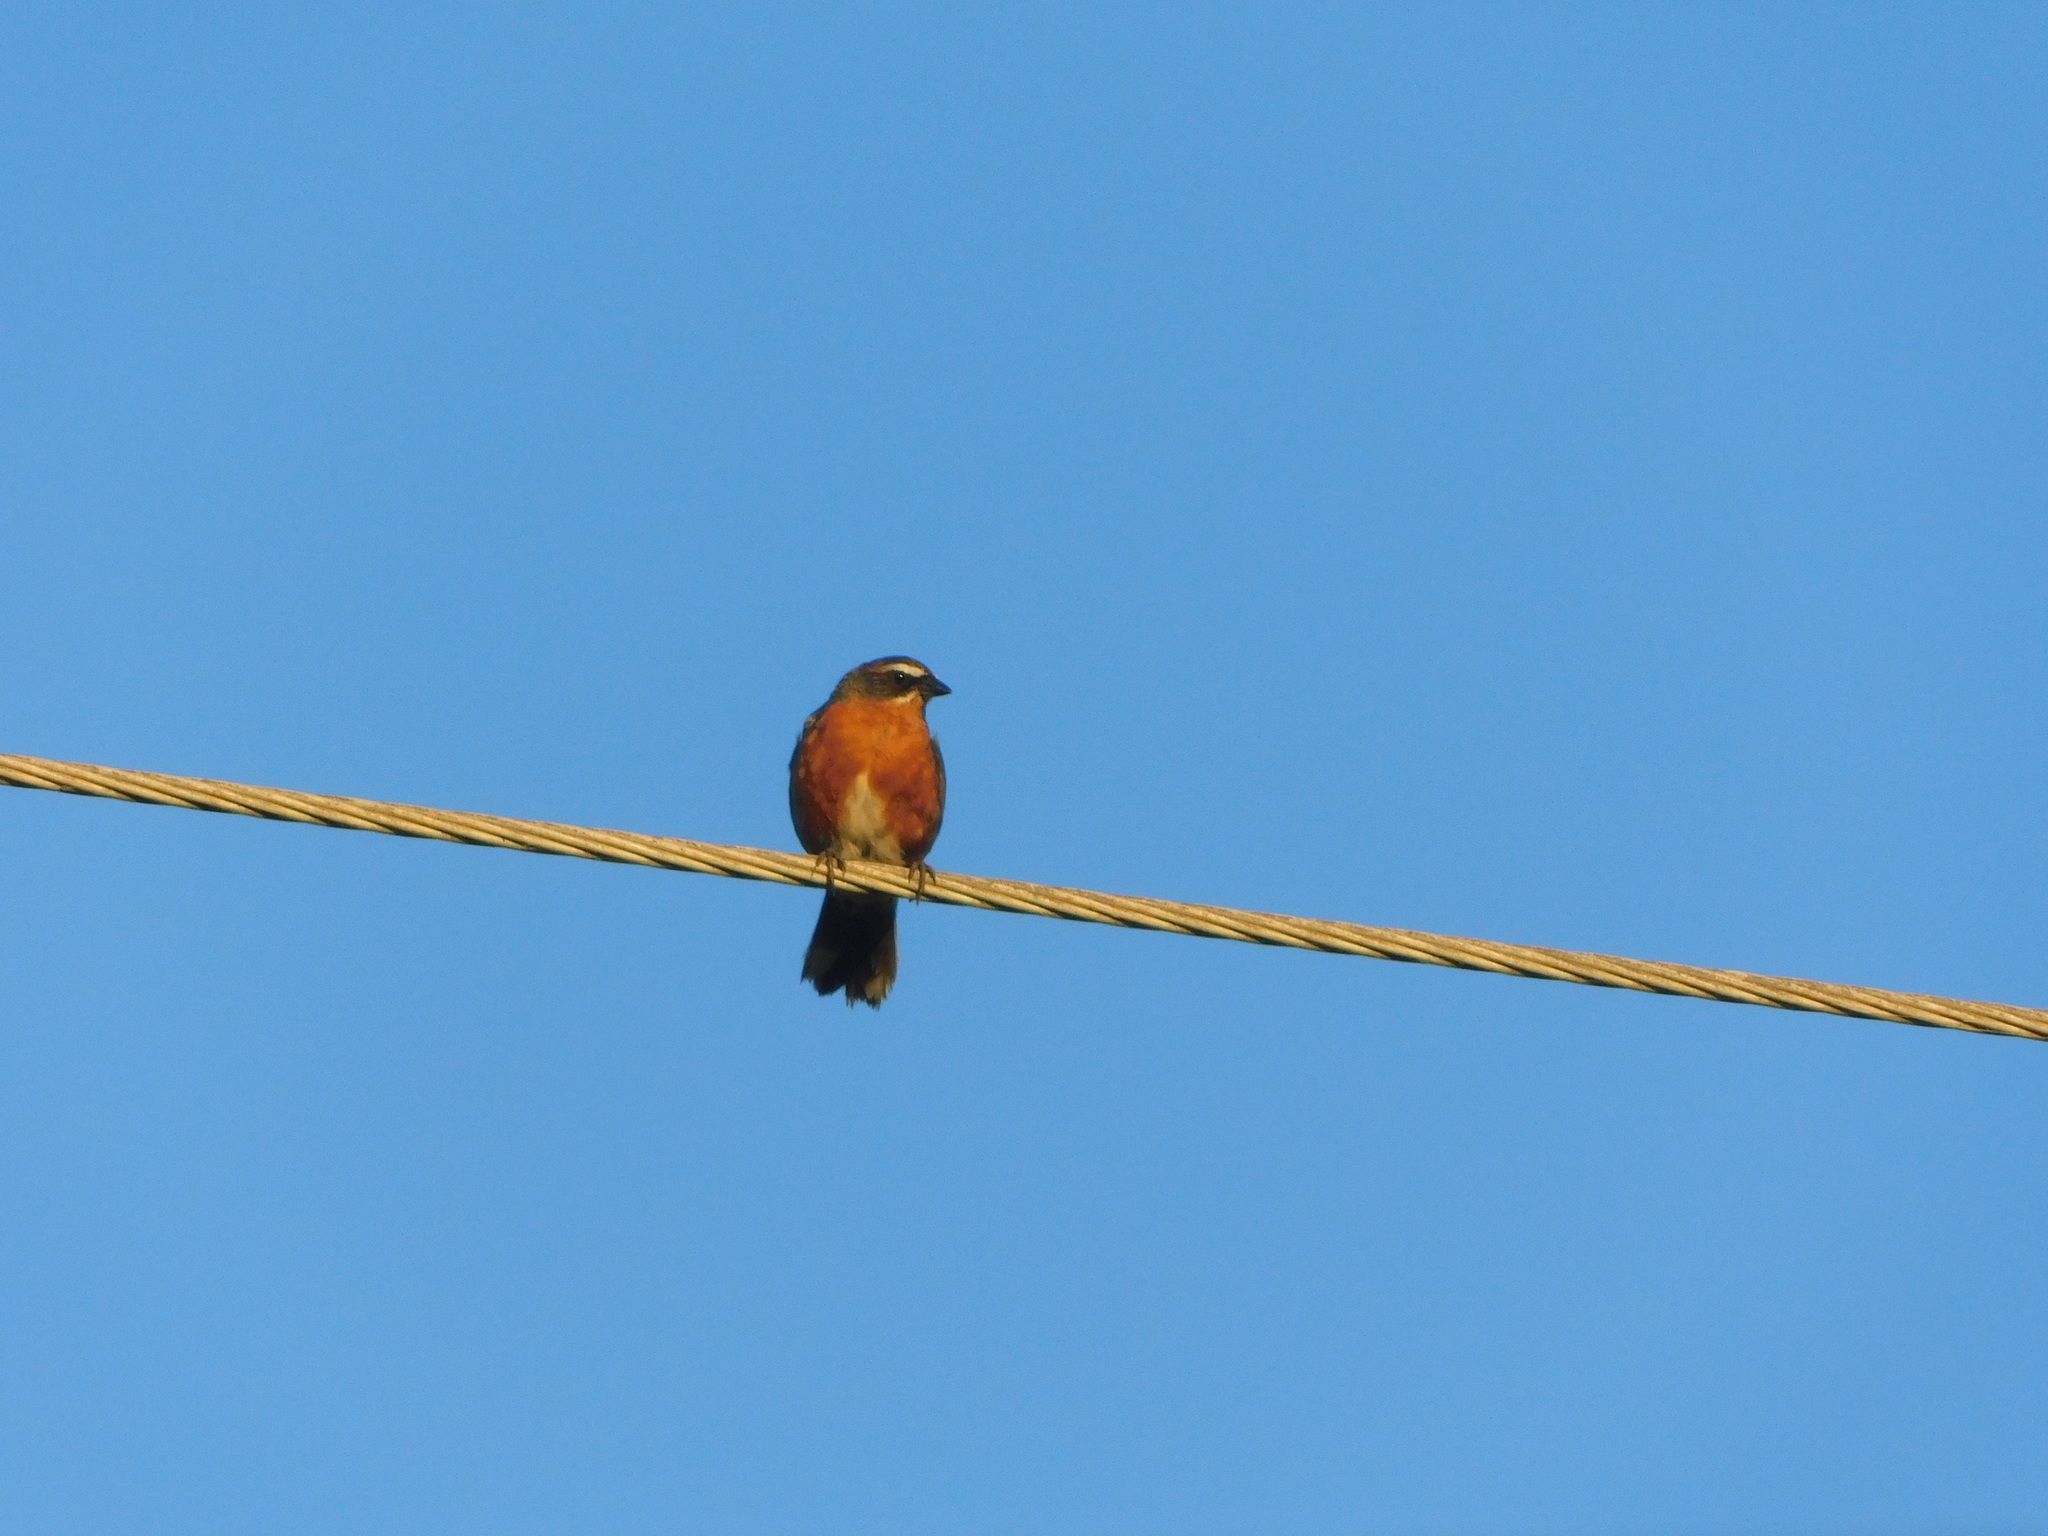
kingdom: Animalia
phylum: Chordata
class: Aves
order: Passeriformes
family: Thraupidae
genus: Poospiza
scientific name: Poospiza nigrorufa
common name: Black-and-rufous warbling finch
